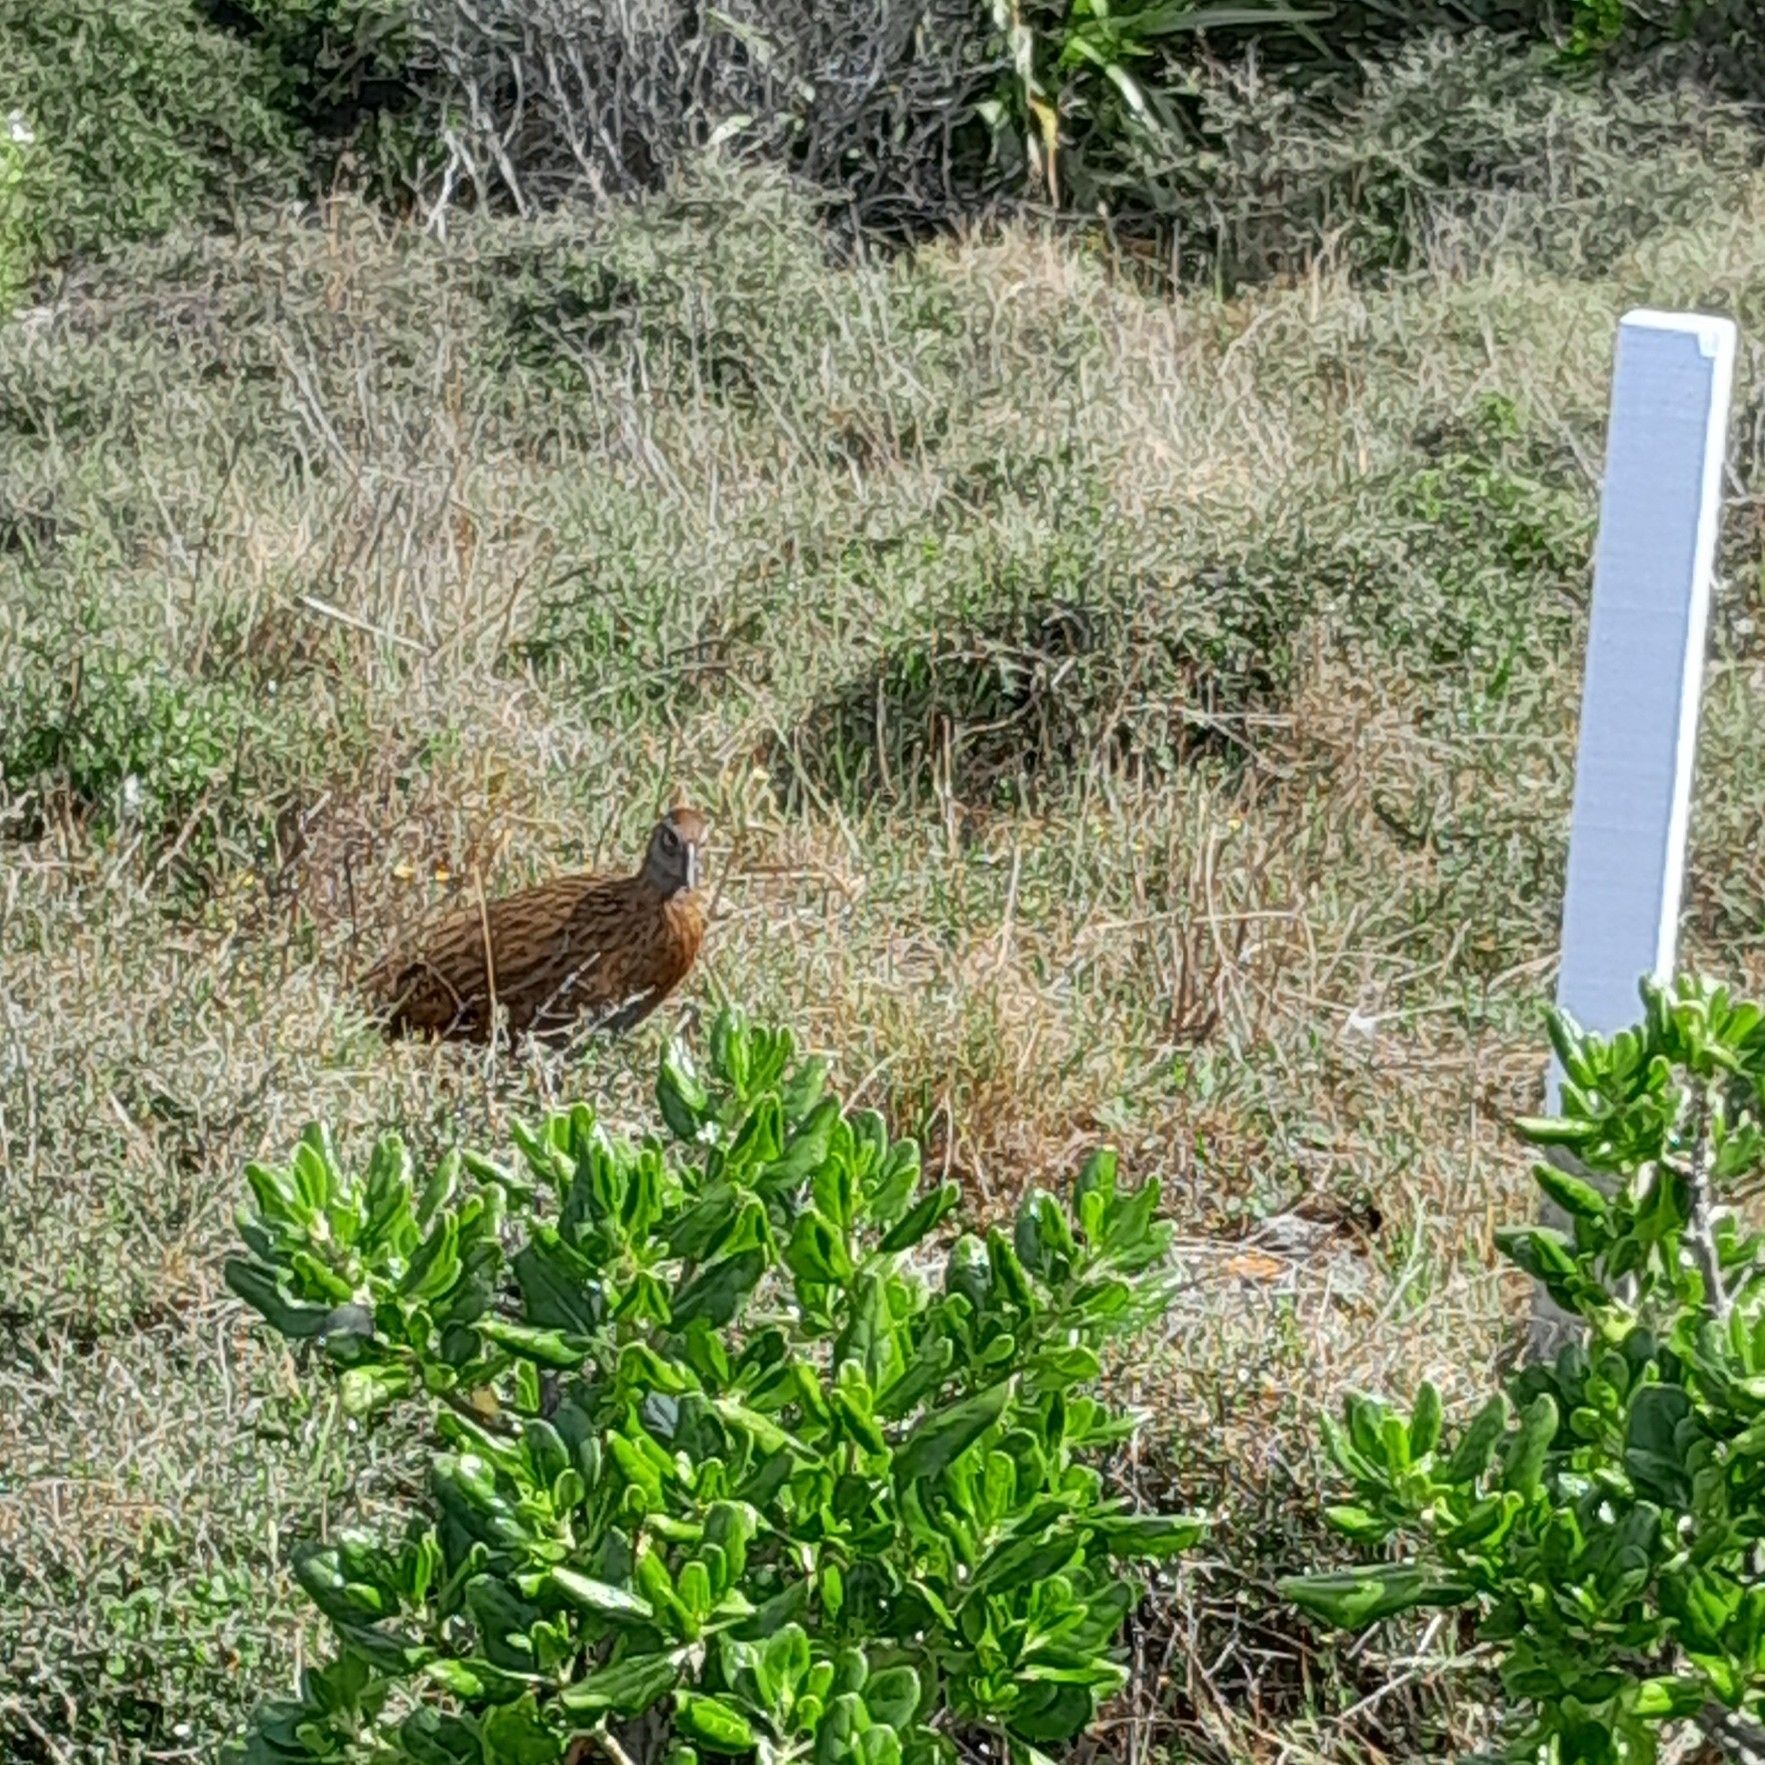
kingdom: Animalia
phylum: Chordata
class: Aves
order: Gruiformes
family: Rallidae
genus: Gallirallus
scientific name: Gallirallus
